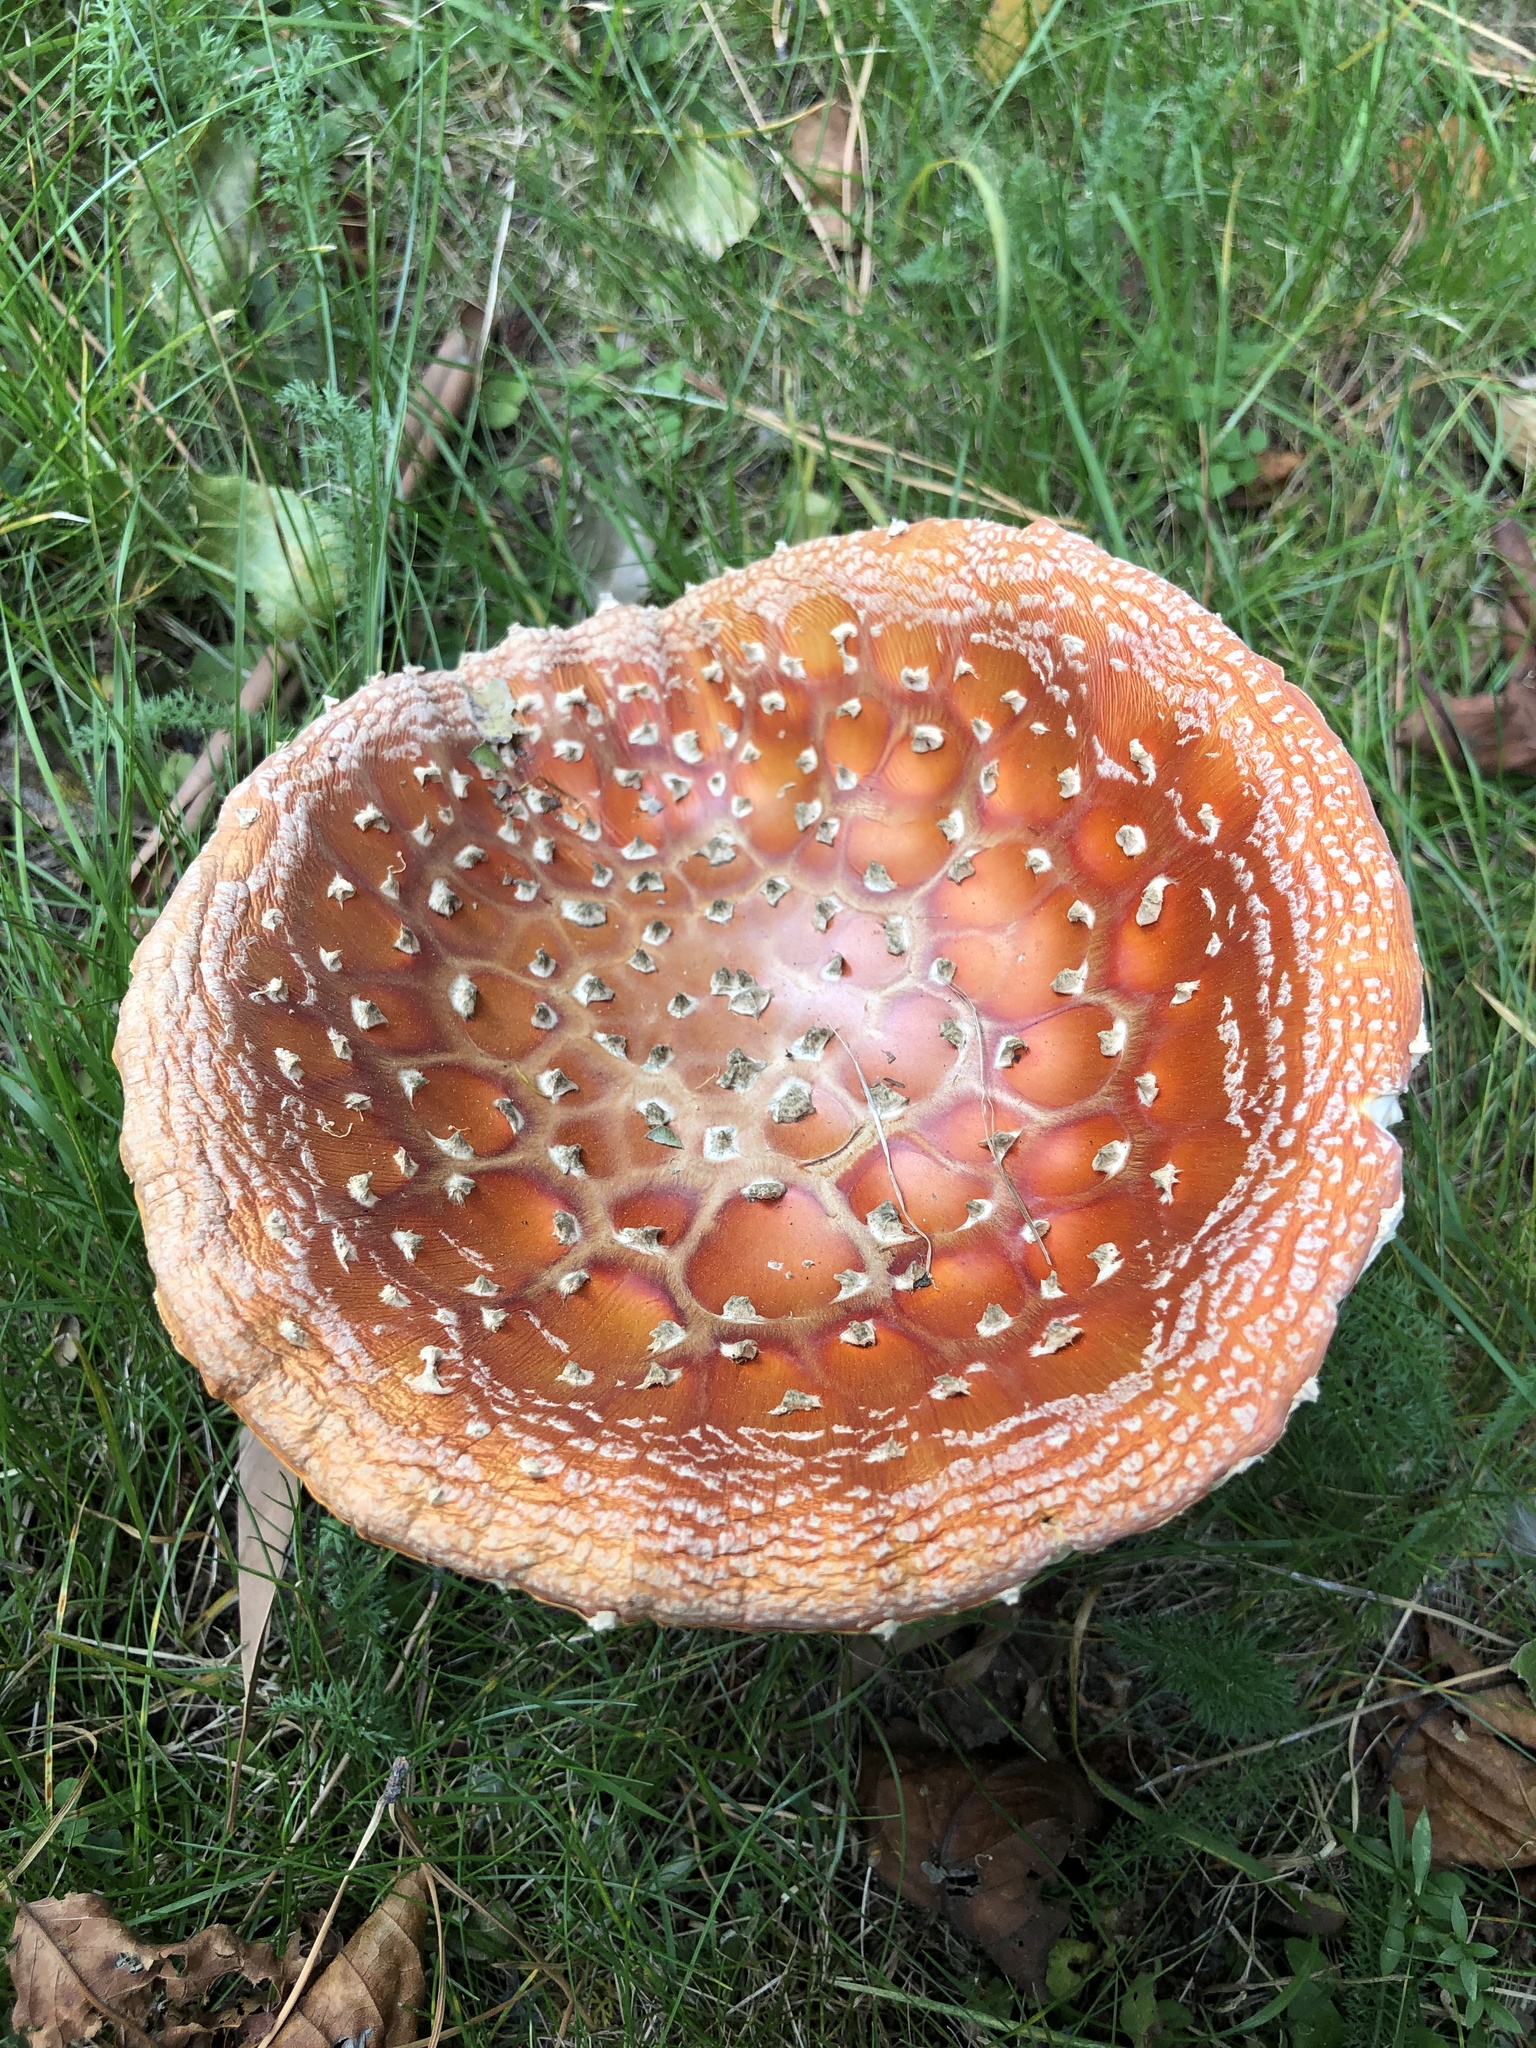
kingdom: Fungi
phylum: Basidiomycota
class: Agaricomycetes
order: Agaricales
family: Amanitaceae
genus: Amanita
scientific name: Amanita muscaria
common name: Fly agaric
